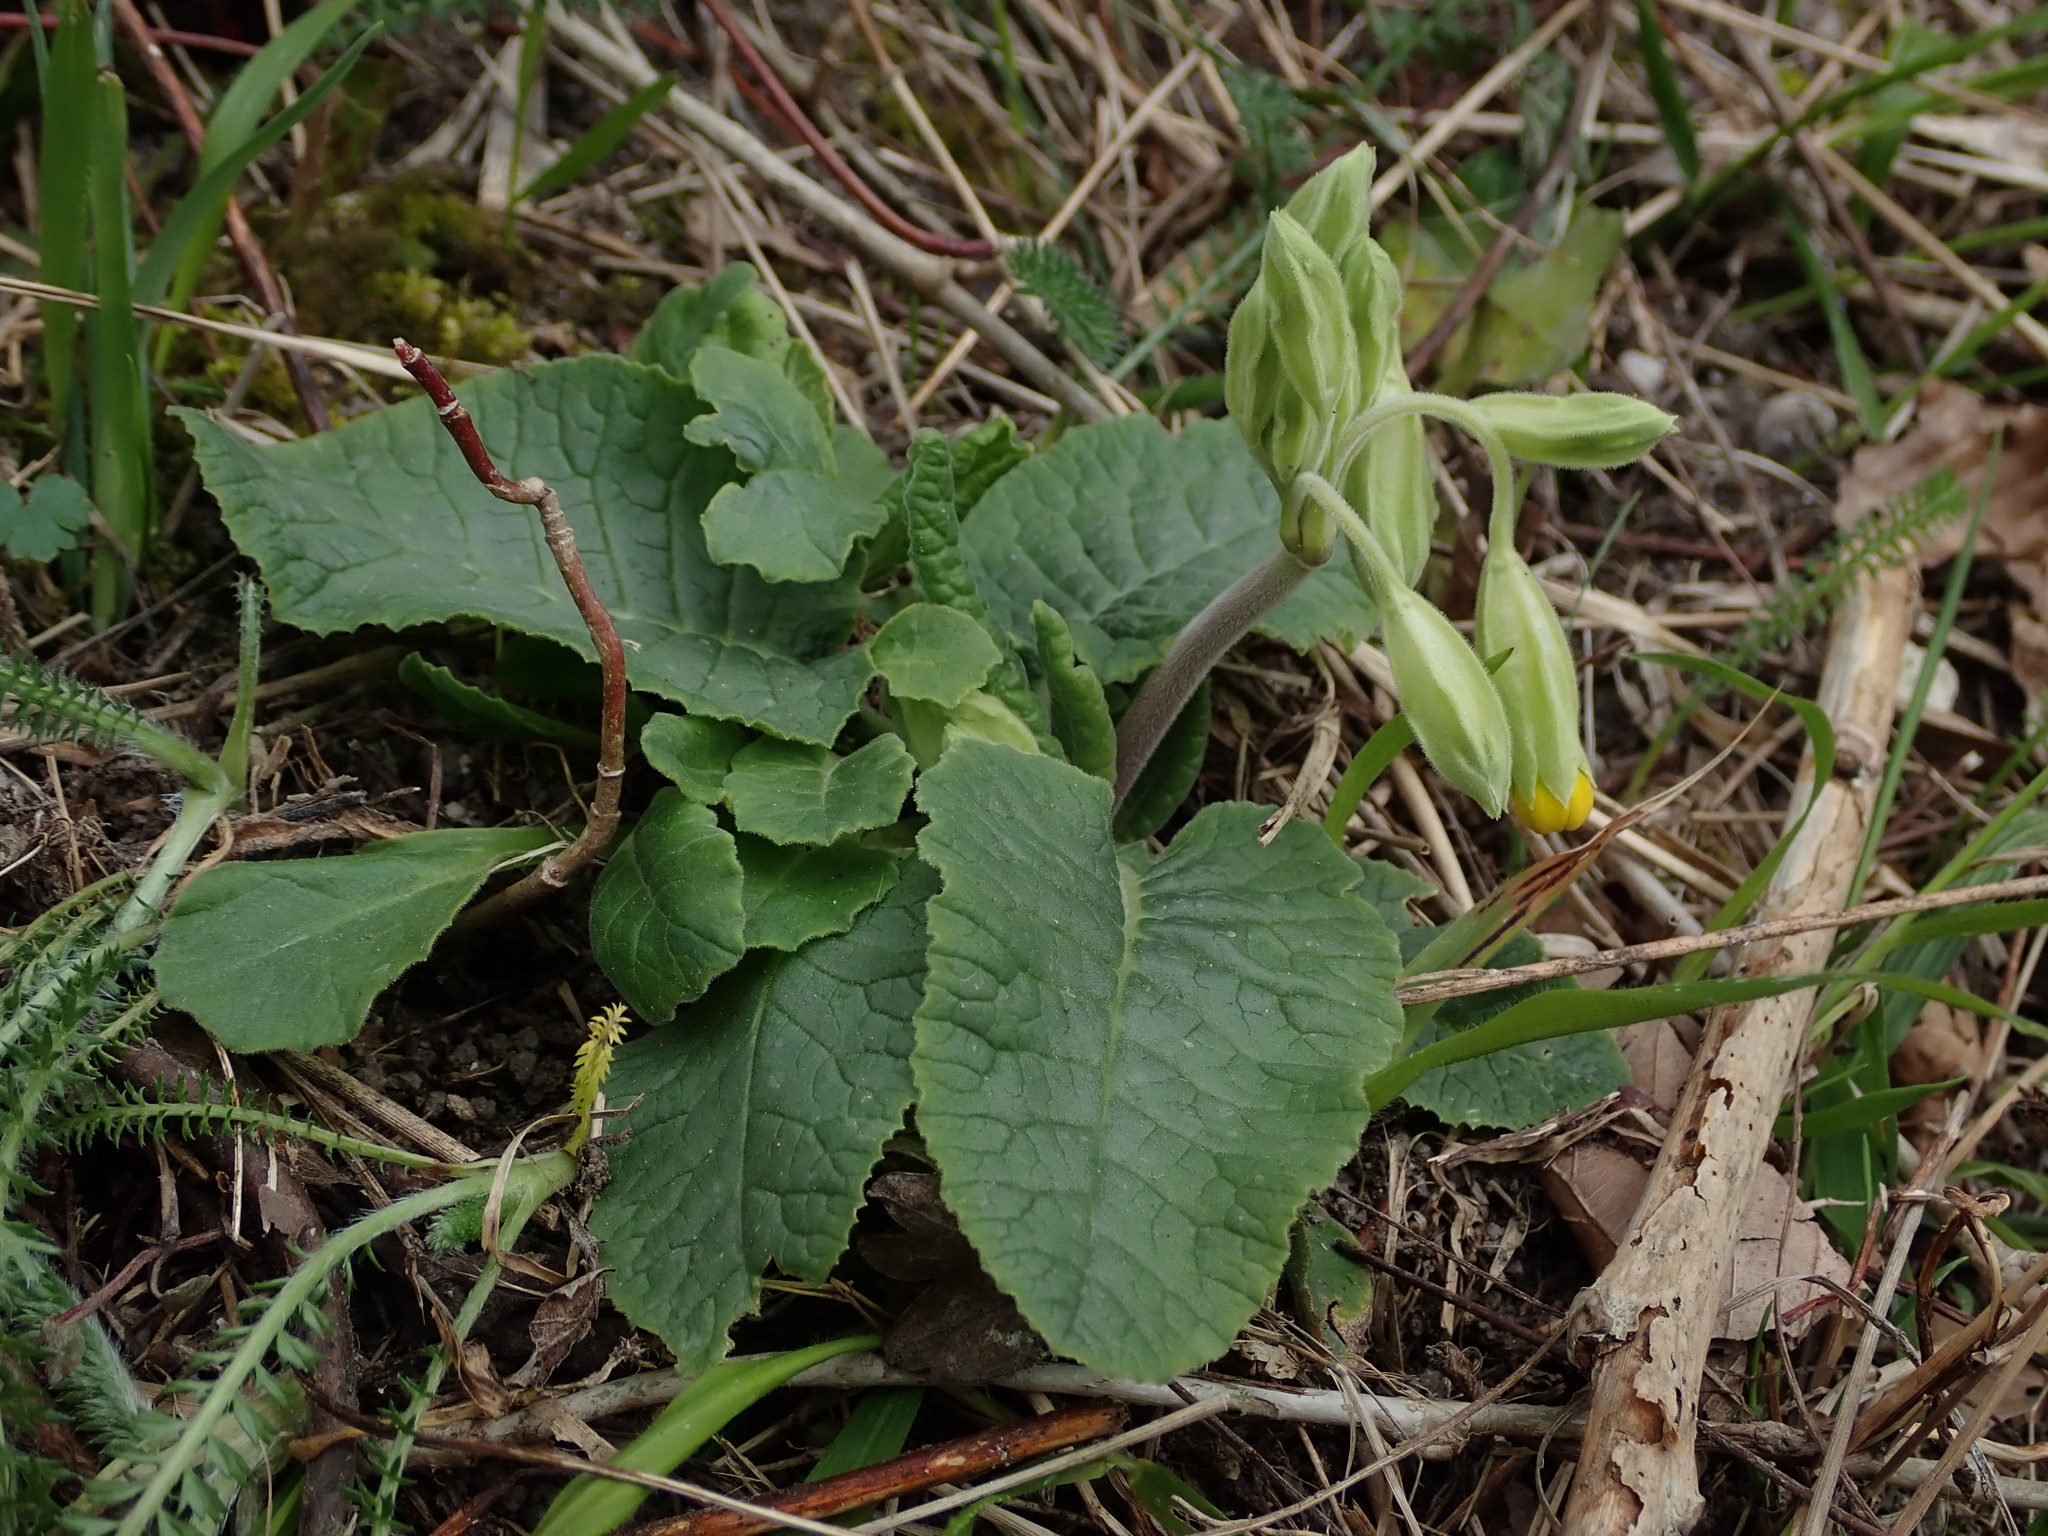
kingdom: Plantae
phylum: Tracheophyta
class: Magnoliopsida
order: Ericales
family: Primulaceae
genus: Primula
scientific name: Primula veris
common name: Cowslip
